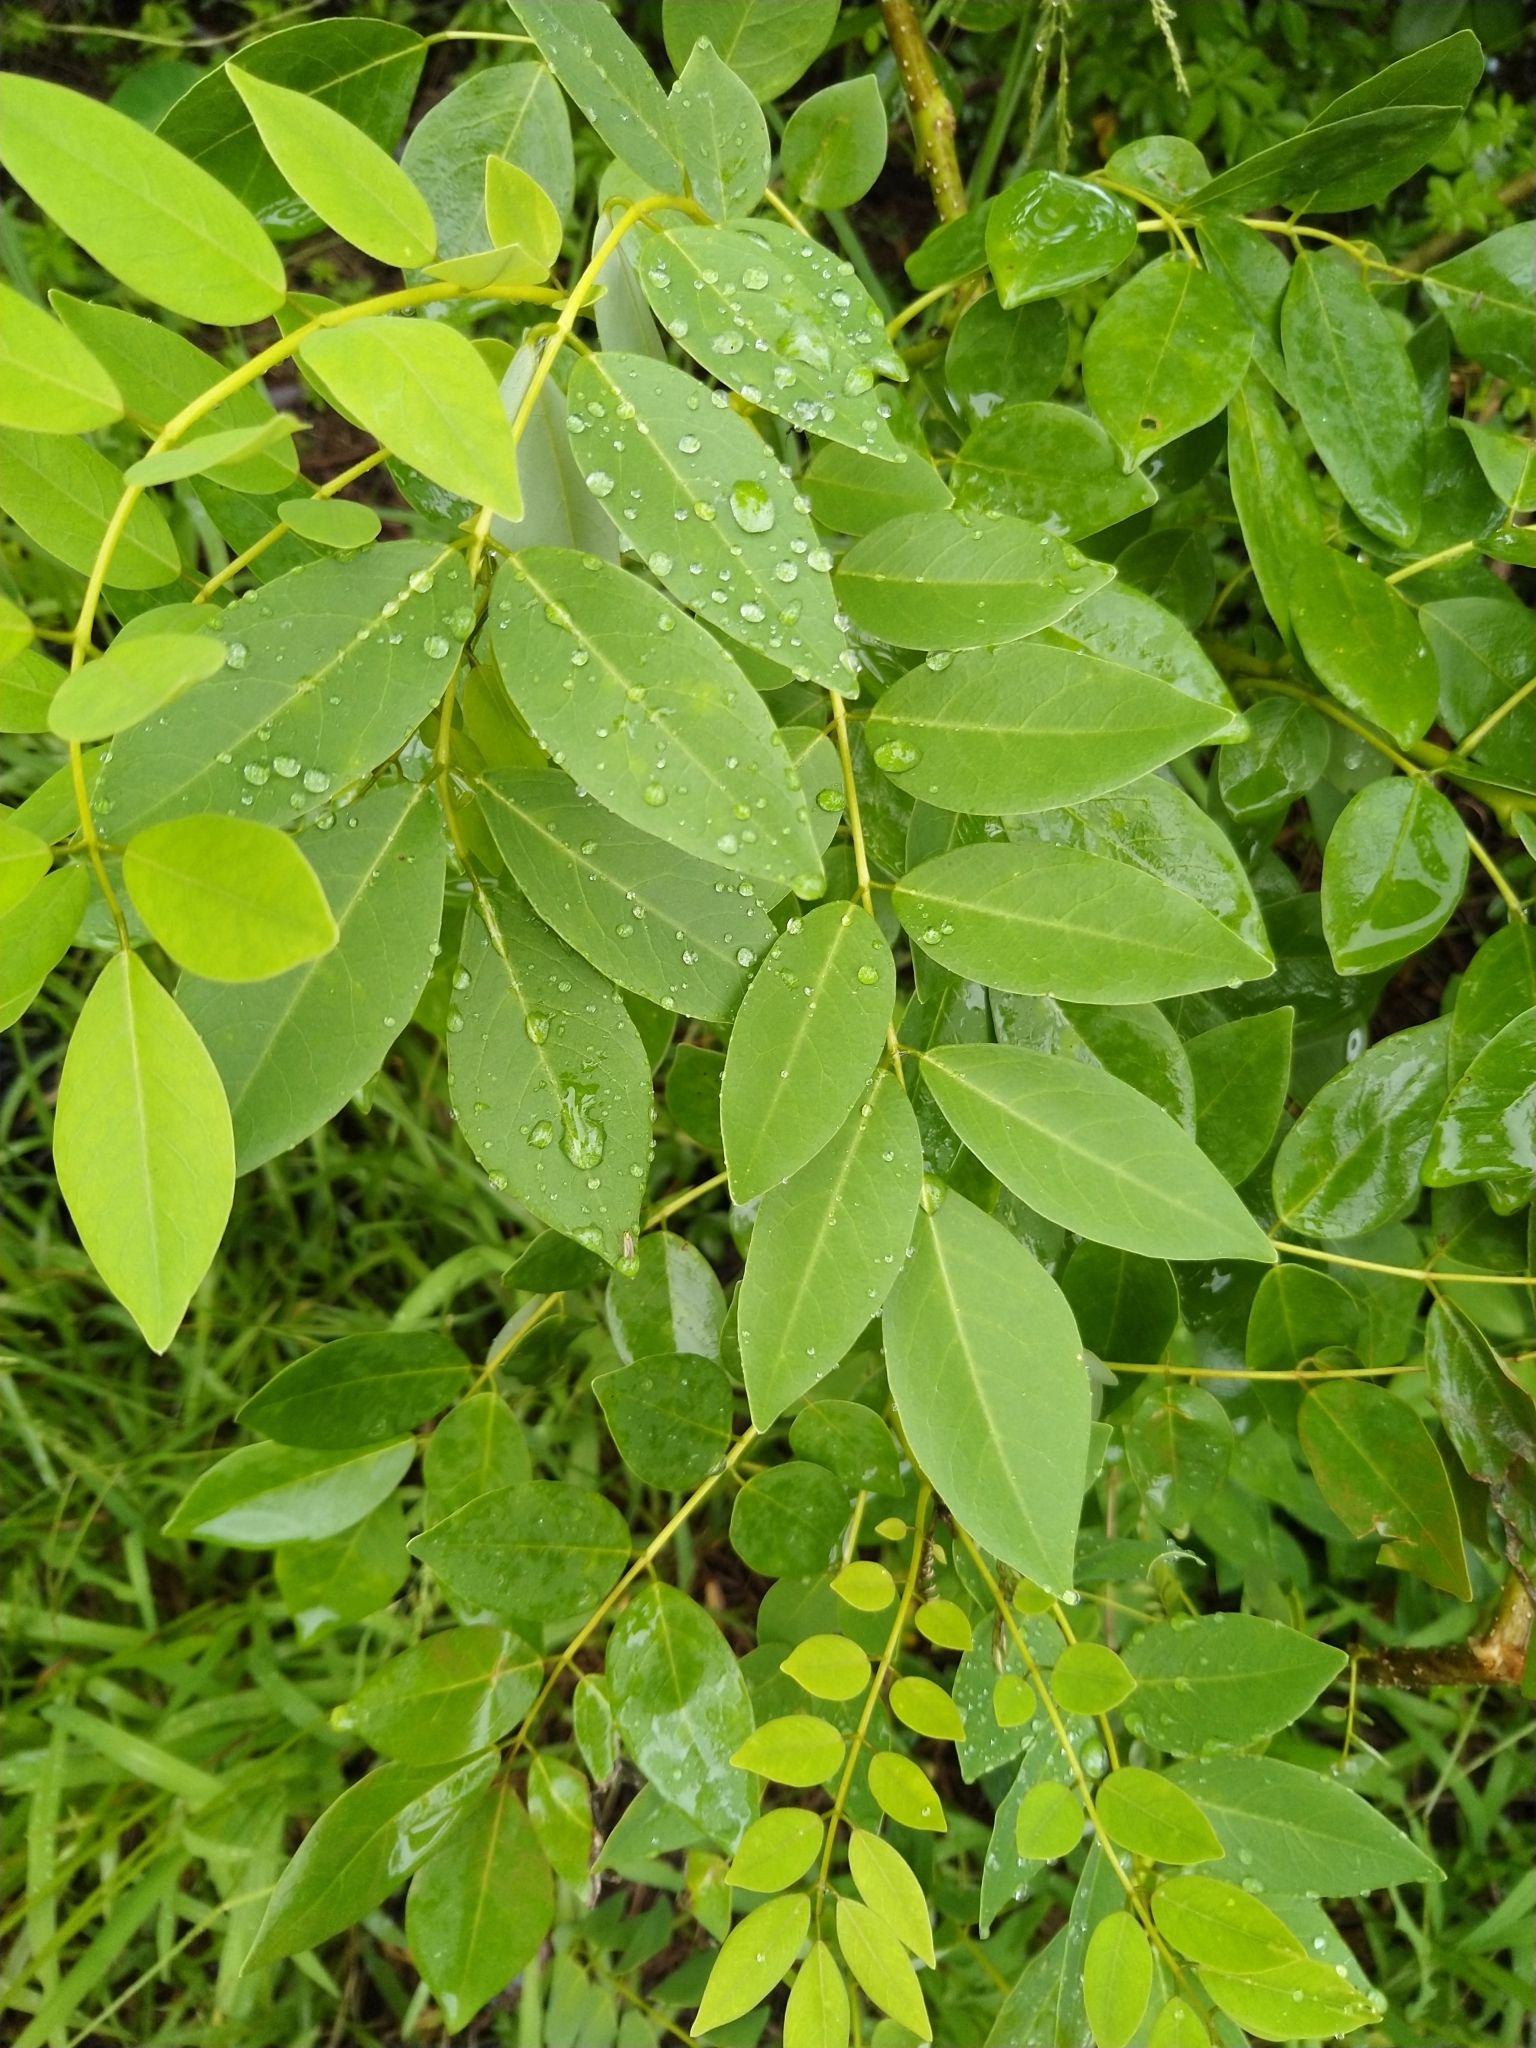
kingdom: Plantae
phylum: Tracheophyta
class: Magnoliopsida
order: Fabales
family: Fabaceae
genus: Gliricidia
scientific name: Gliricidia sepium
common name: Quickstick
